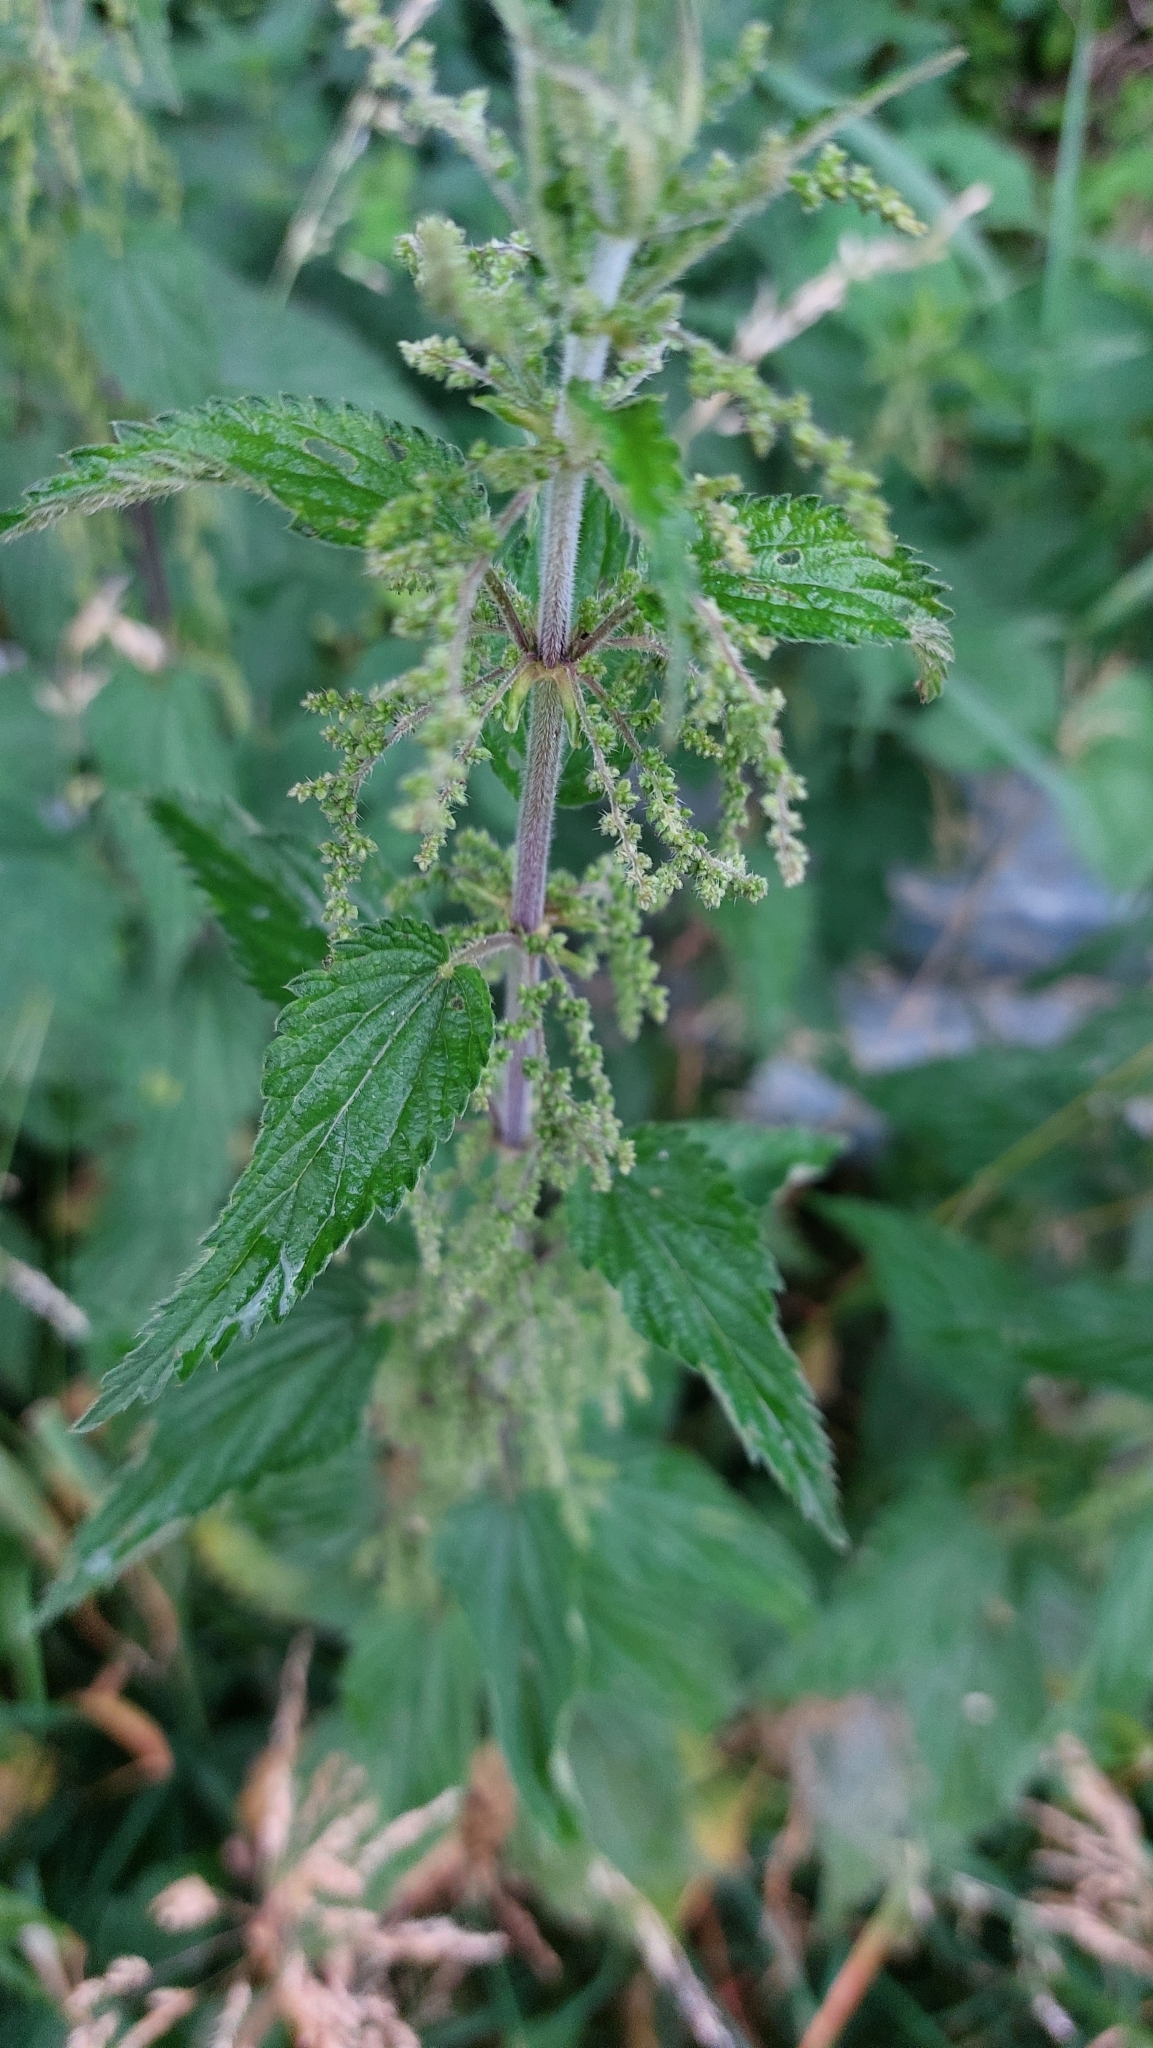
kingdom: Plantae
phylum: Tracheophyta
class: Magnoliopsida
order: Rosales
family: Urticaceae
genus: Urtica
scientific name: Urtica dioica
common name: Common nettle
